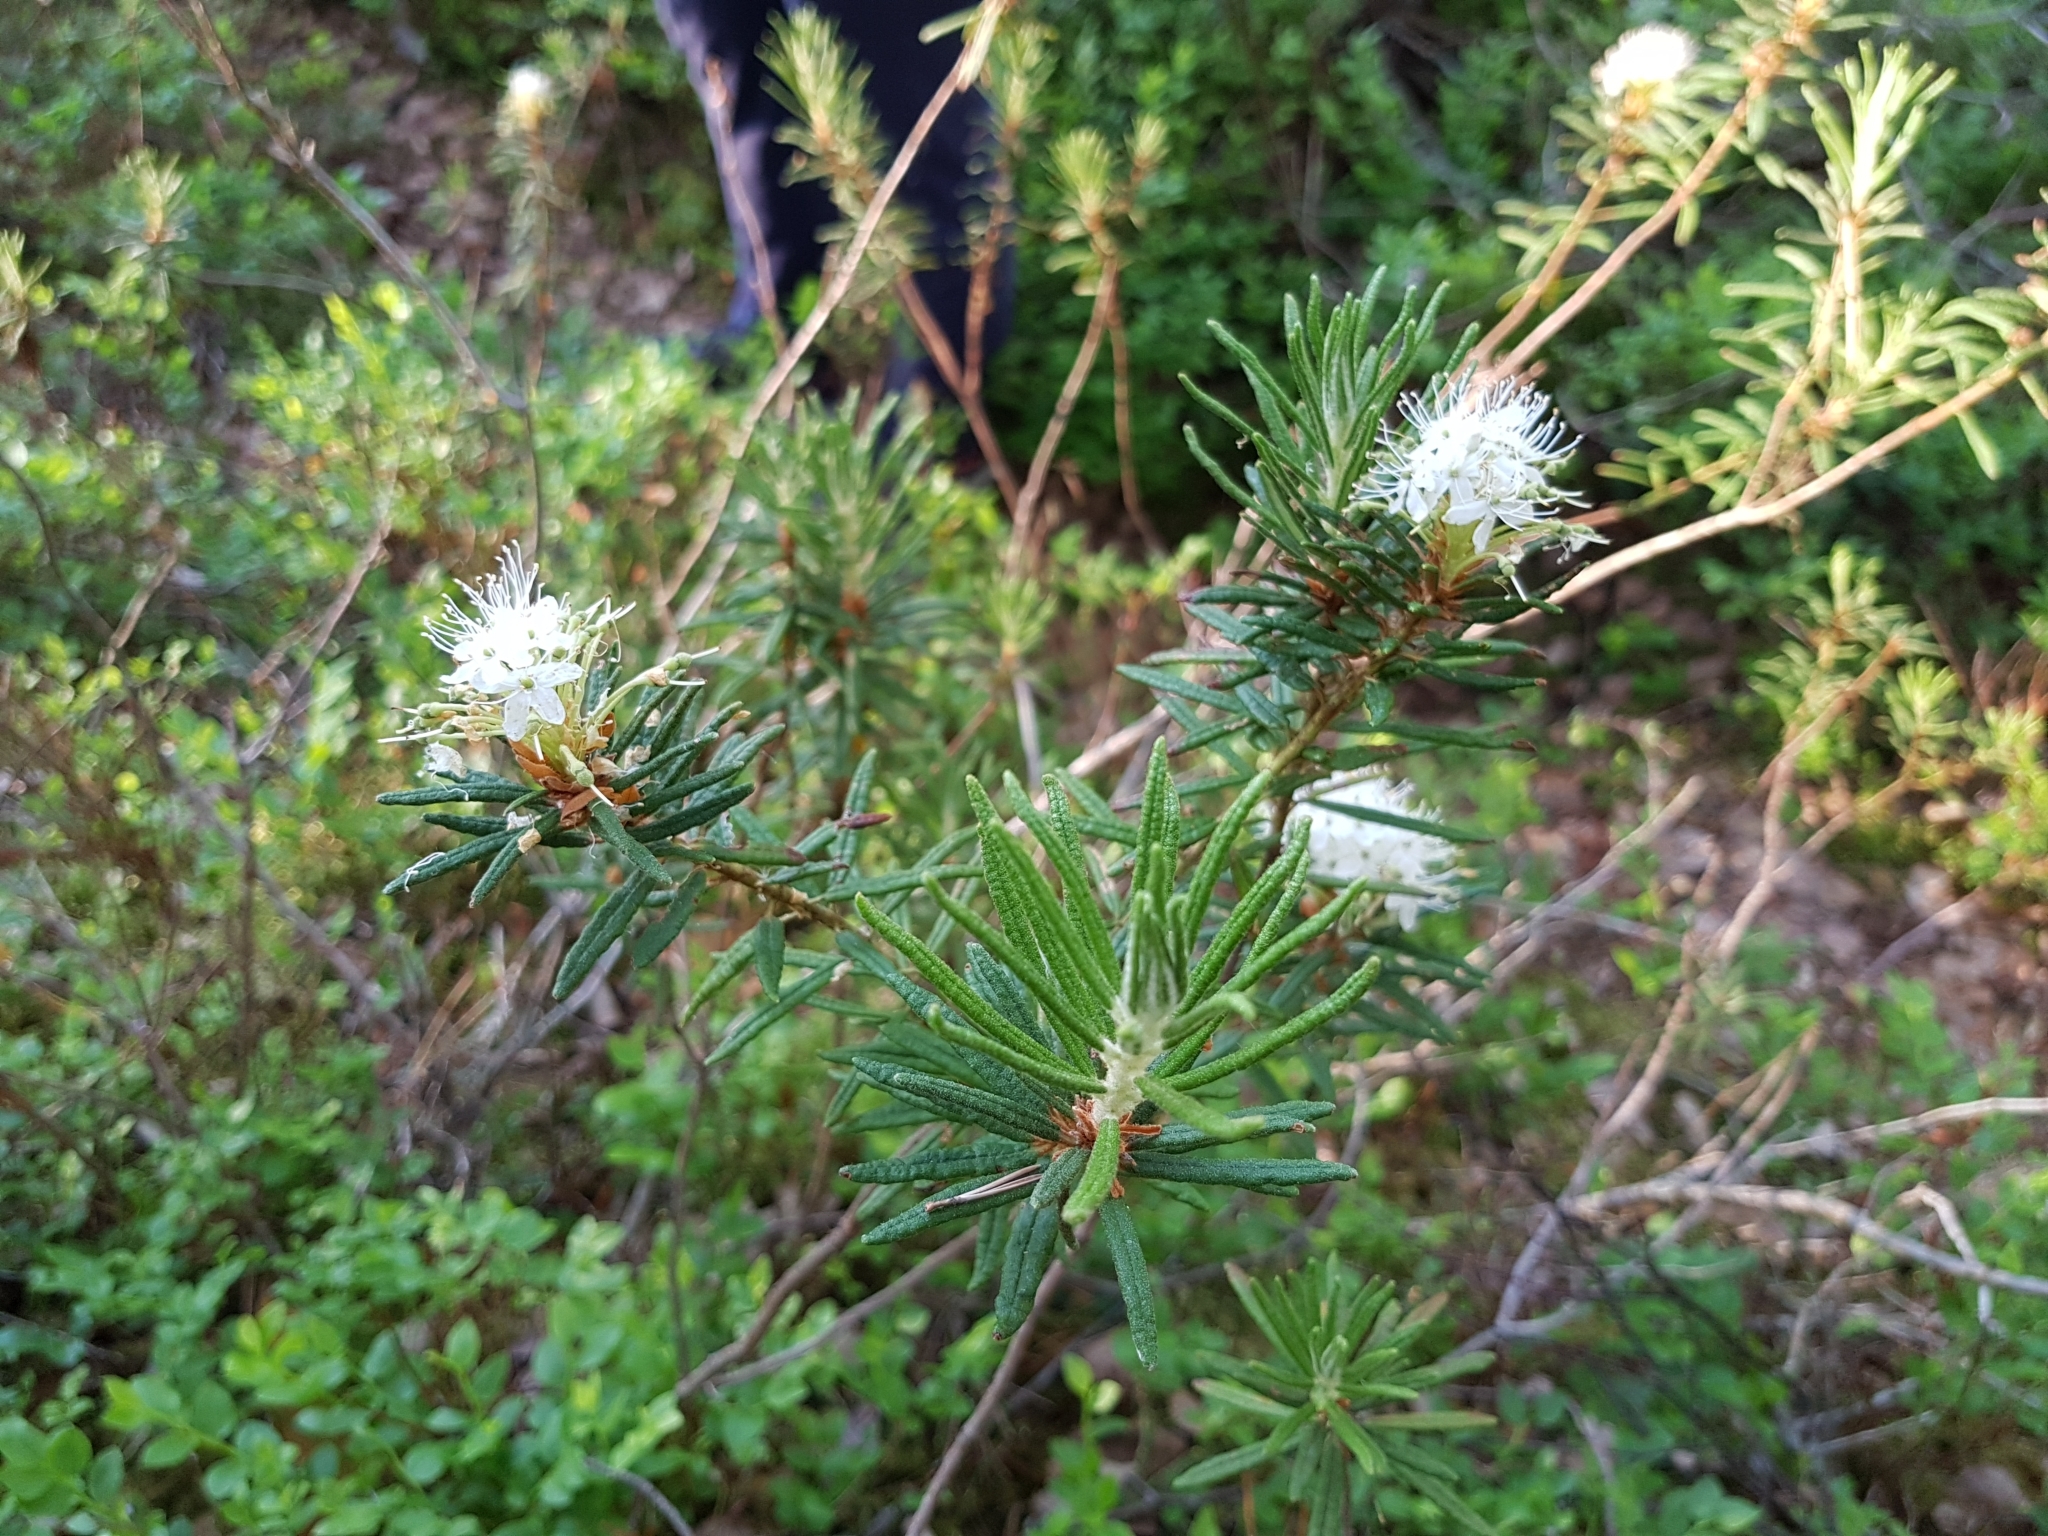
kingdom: Plantae
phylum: Tracheophyta
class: Magnoliopsida
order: Ericales
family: Ericaceae
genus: Rhododendron
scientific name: Rhododendron tomentosum
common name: Marsh labrador tea
